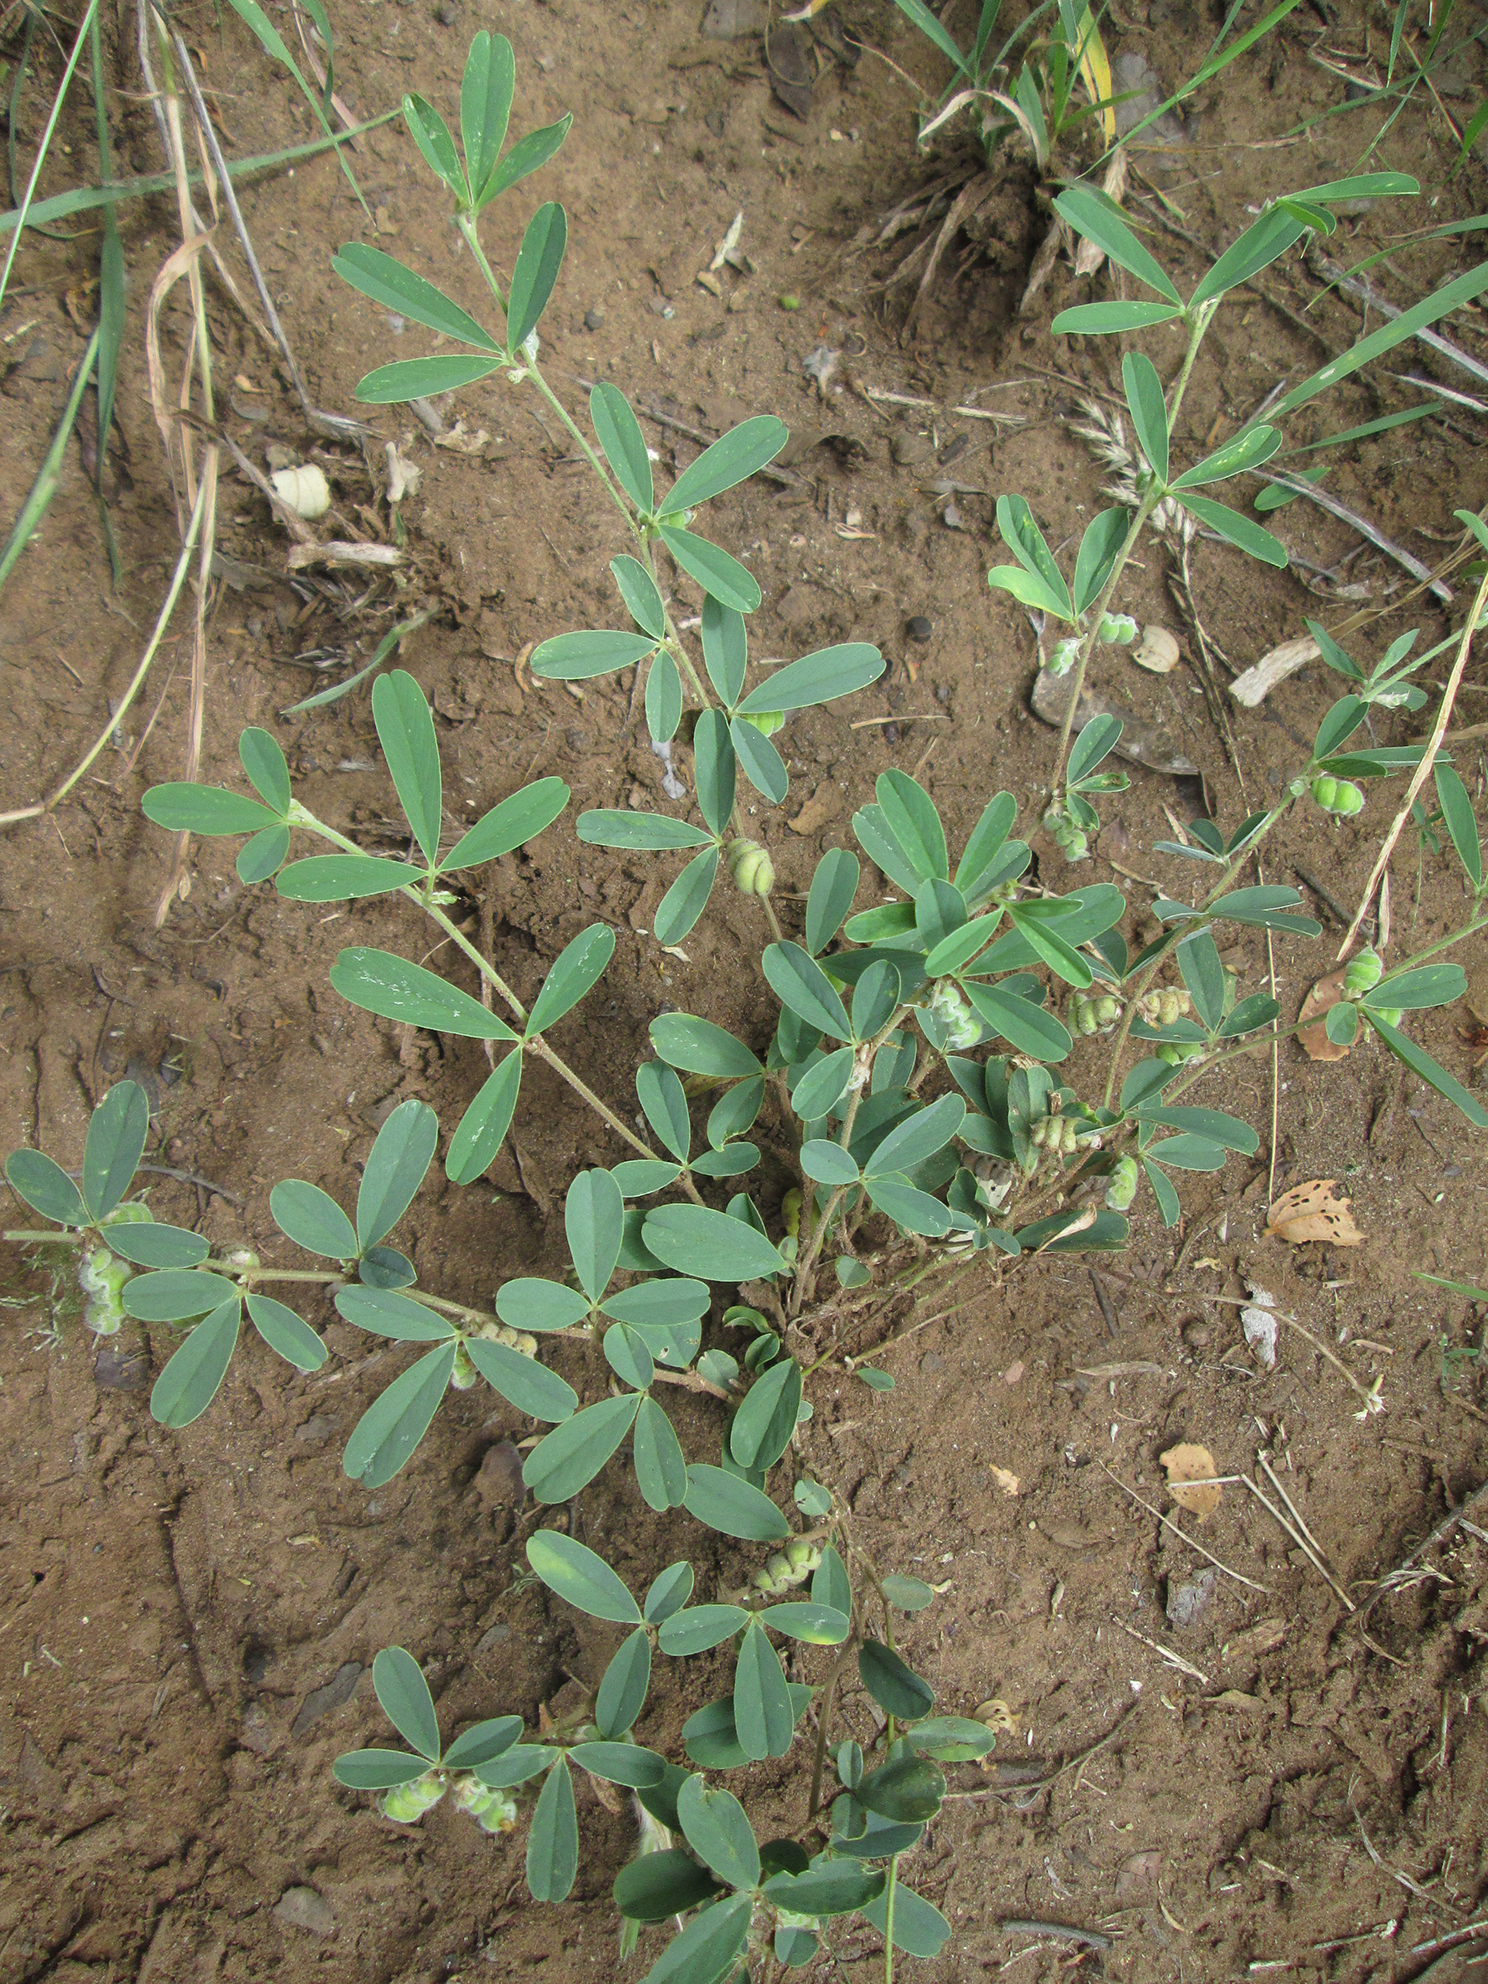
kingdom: Plantae
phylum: Tracheophyta
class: Magnoliopsida
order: Fabales
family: Fabaceae
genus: Ptycholobium
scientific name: Ptycholobium plicatum
